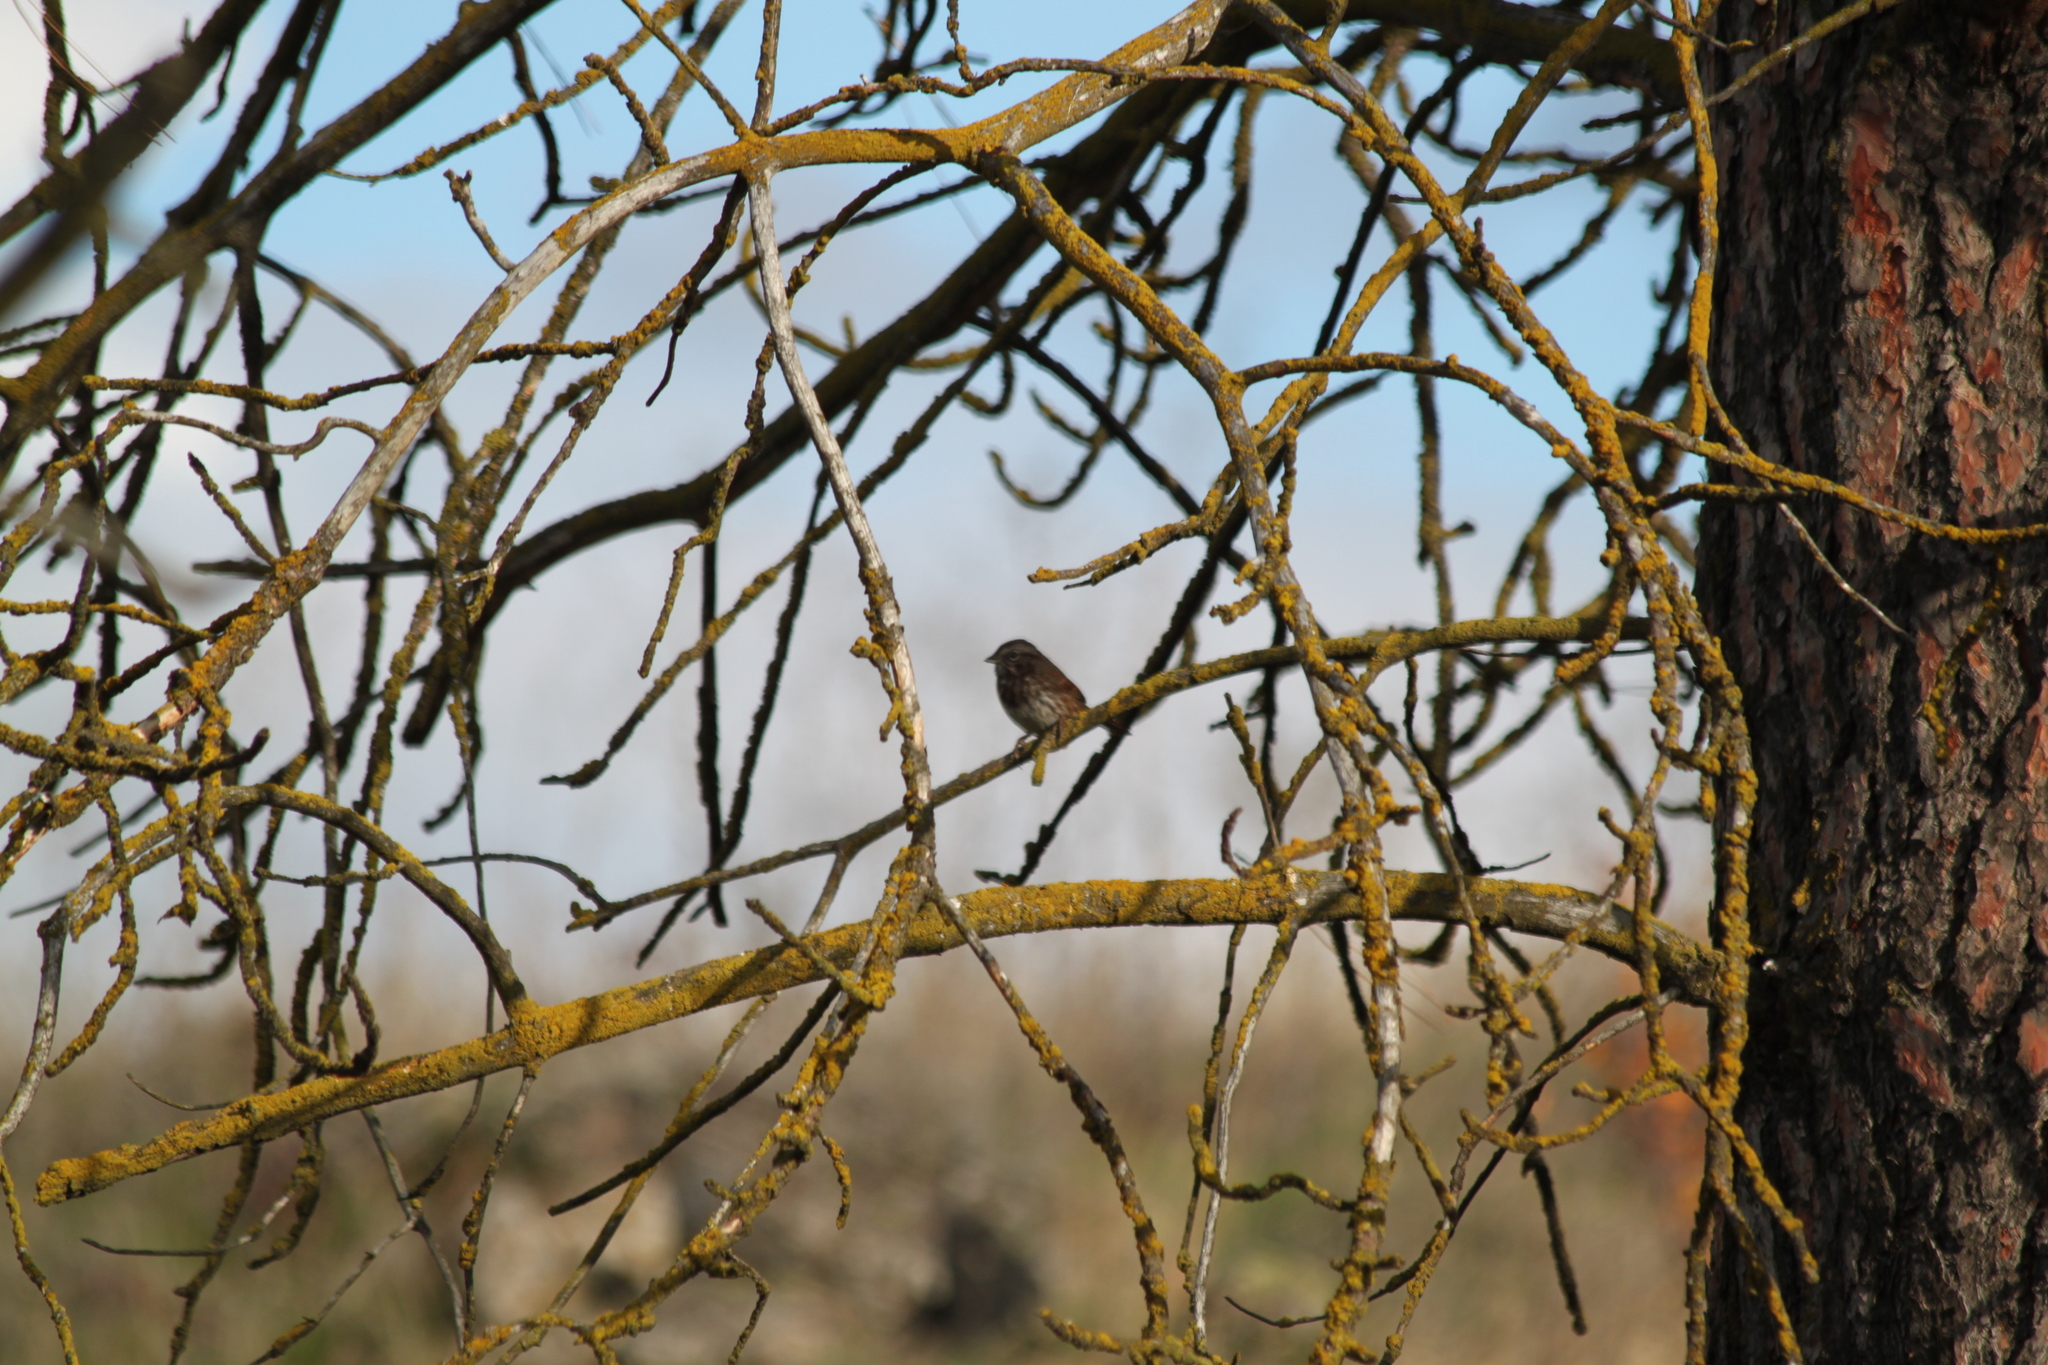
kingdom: Animalia
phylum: Chordata
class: Aves
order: Passeriformes
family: Passerellidae
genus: Melospiza
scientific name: Melospiza melodia
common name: Song sparrow
